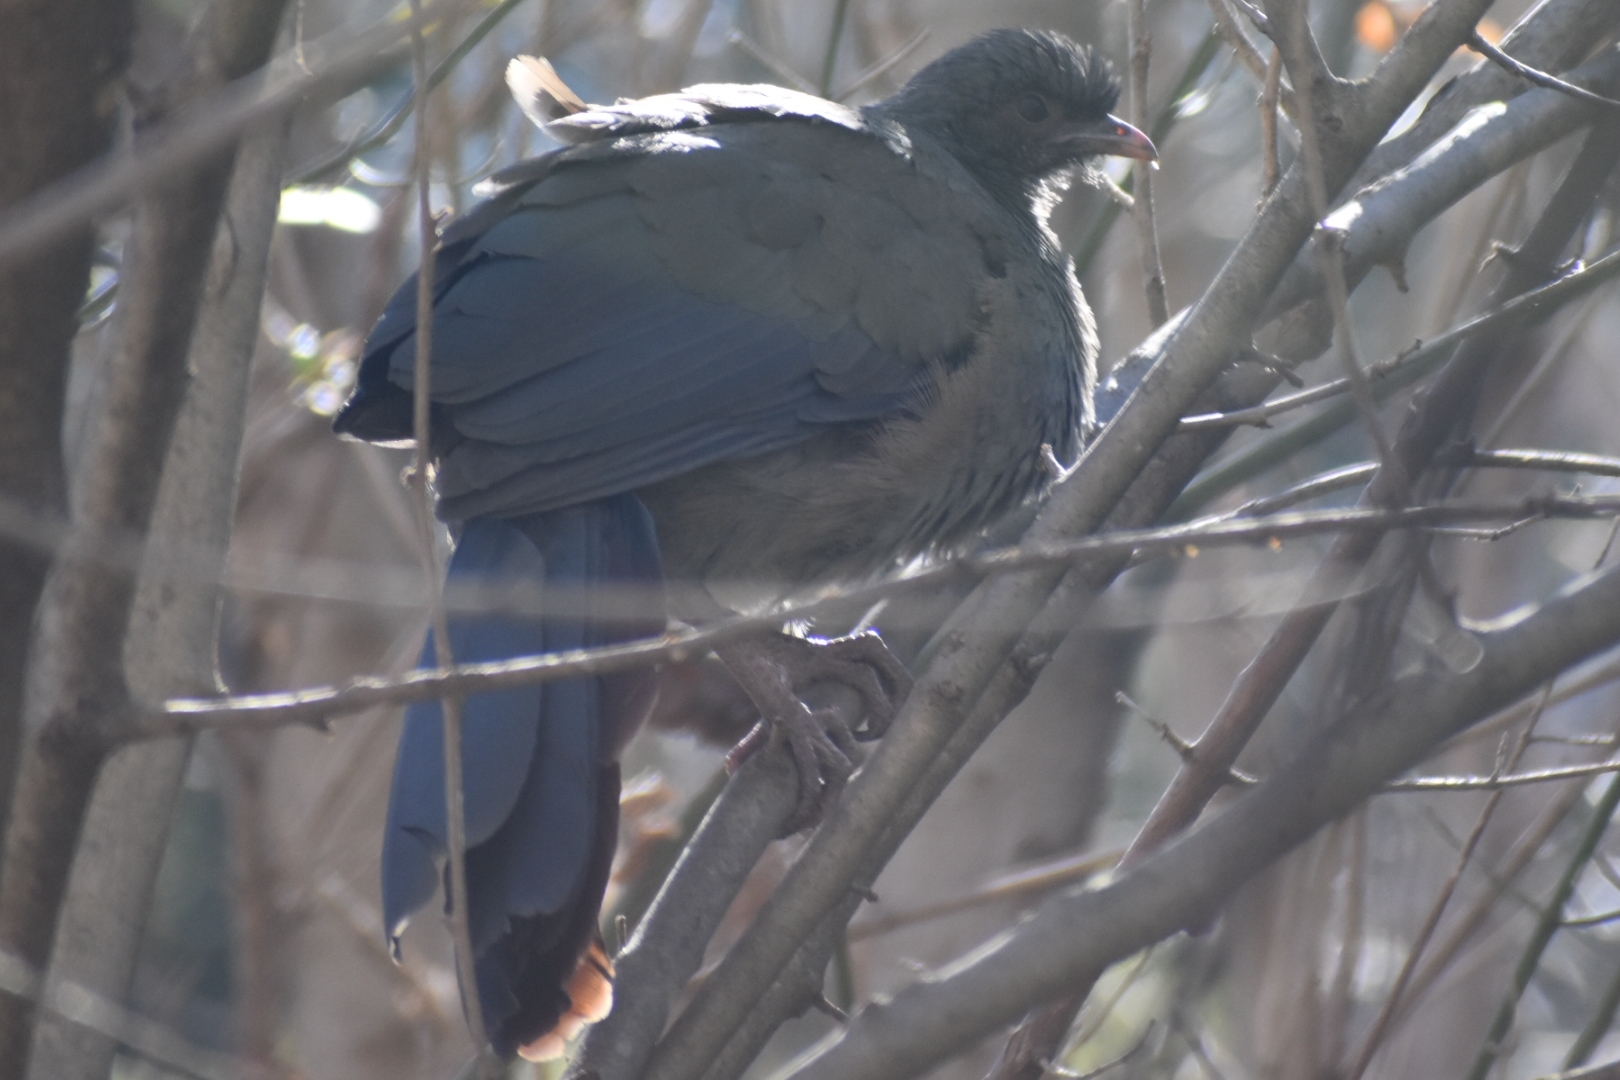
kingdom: Animalia
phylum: Chordata
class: Aves
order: Galliformes
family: Cracidae
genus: Ortalis
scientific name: Ortalis canicollis
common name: Chaco chachalaca
